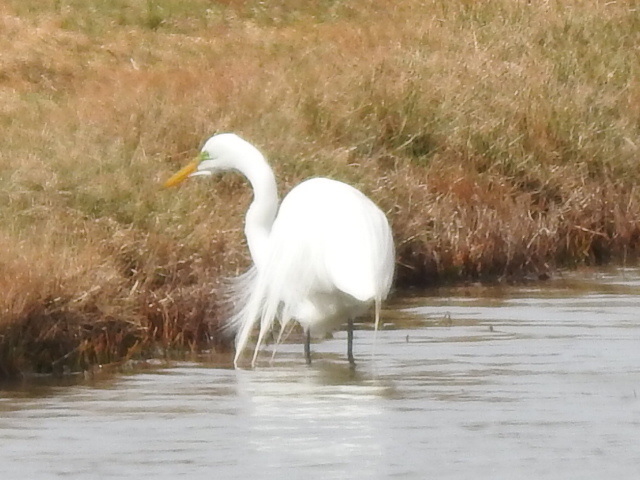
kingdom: Animalia
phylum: Chordata
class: Aves
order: Pelecaniformes
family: Ardeidae
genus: Ardea
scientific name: Ardea alba
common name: Great egret
